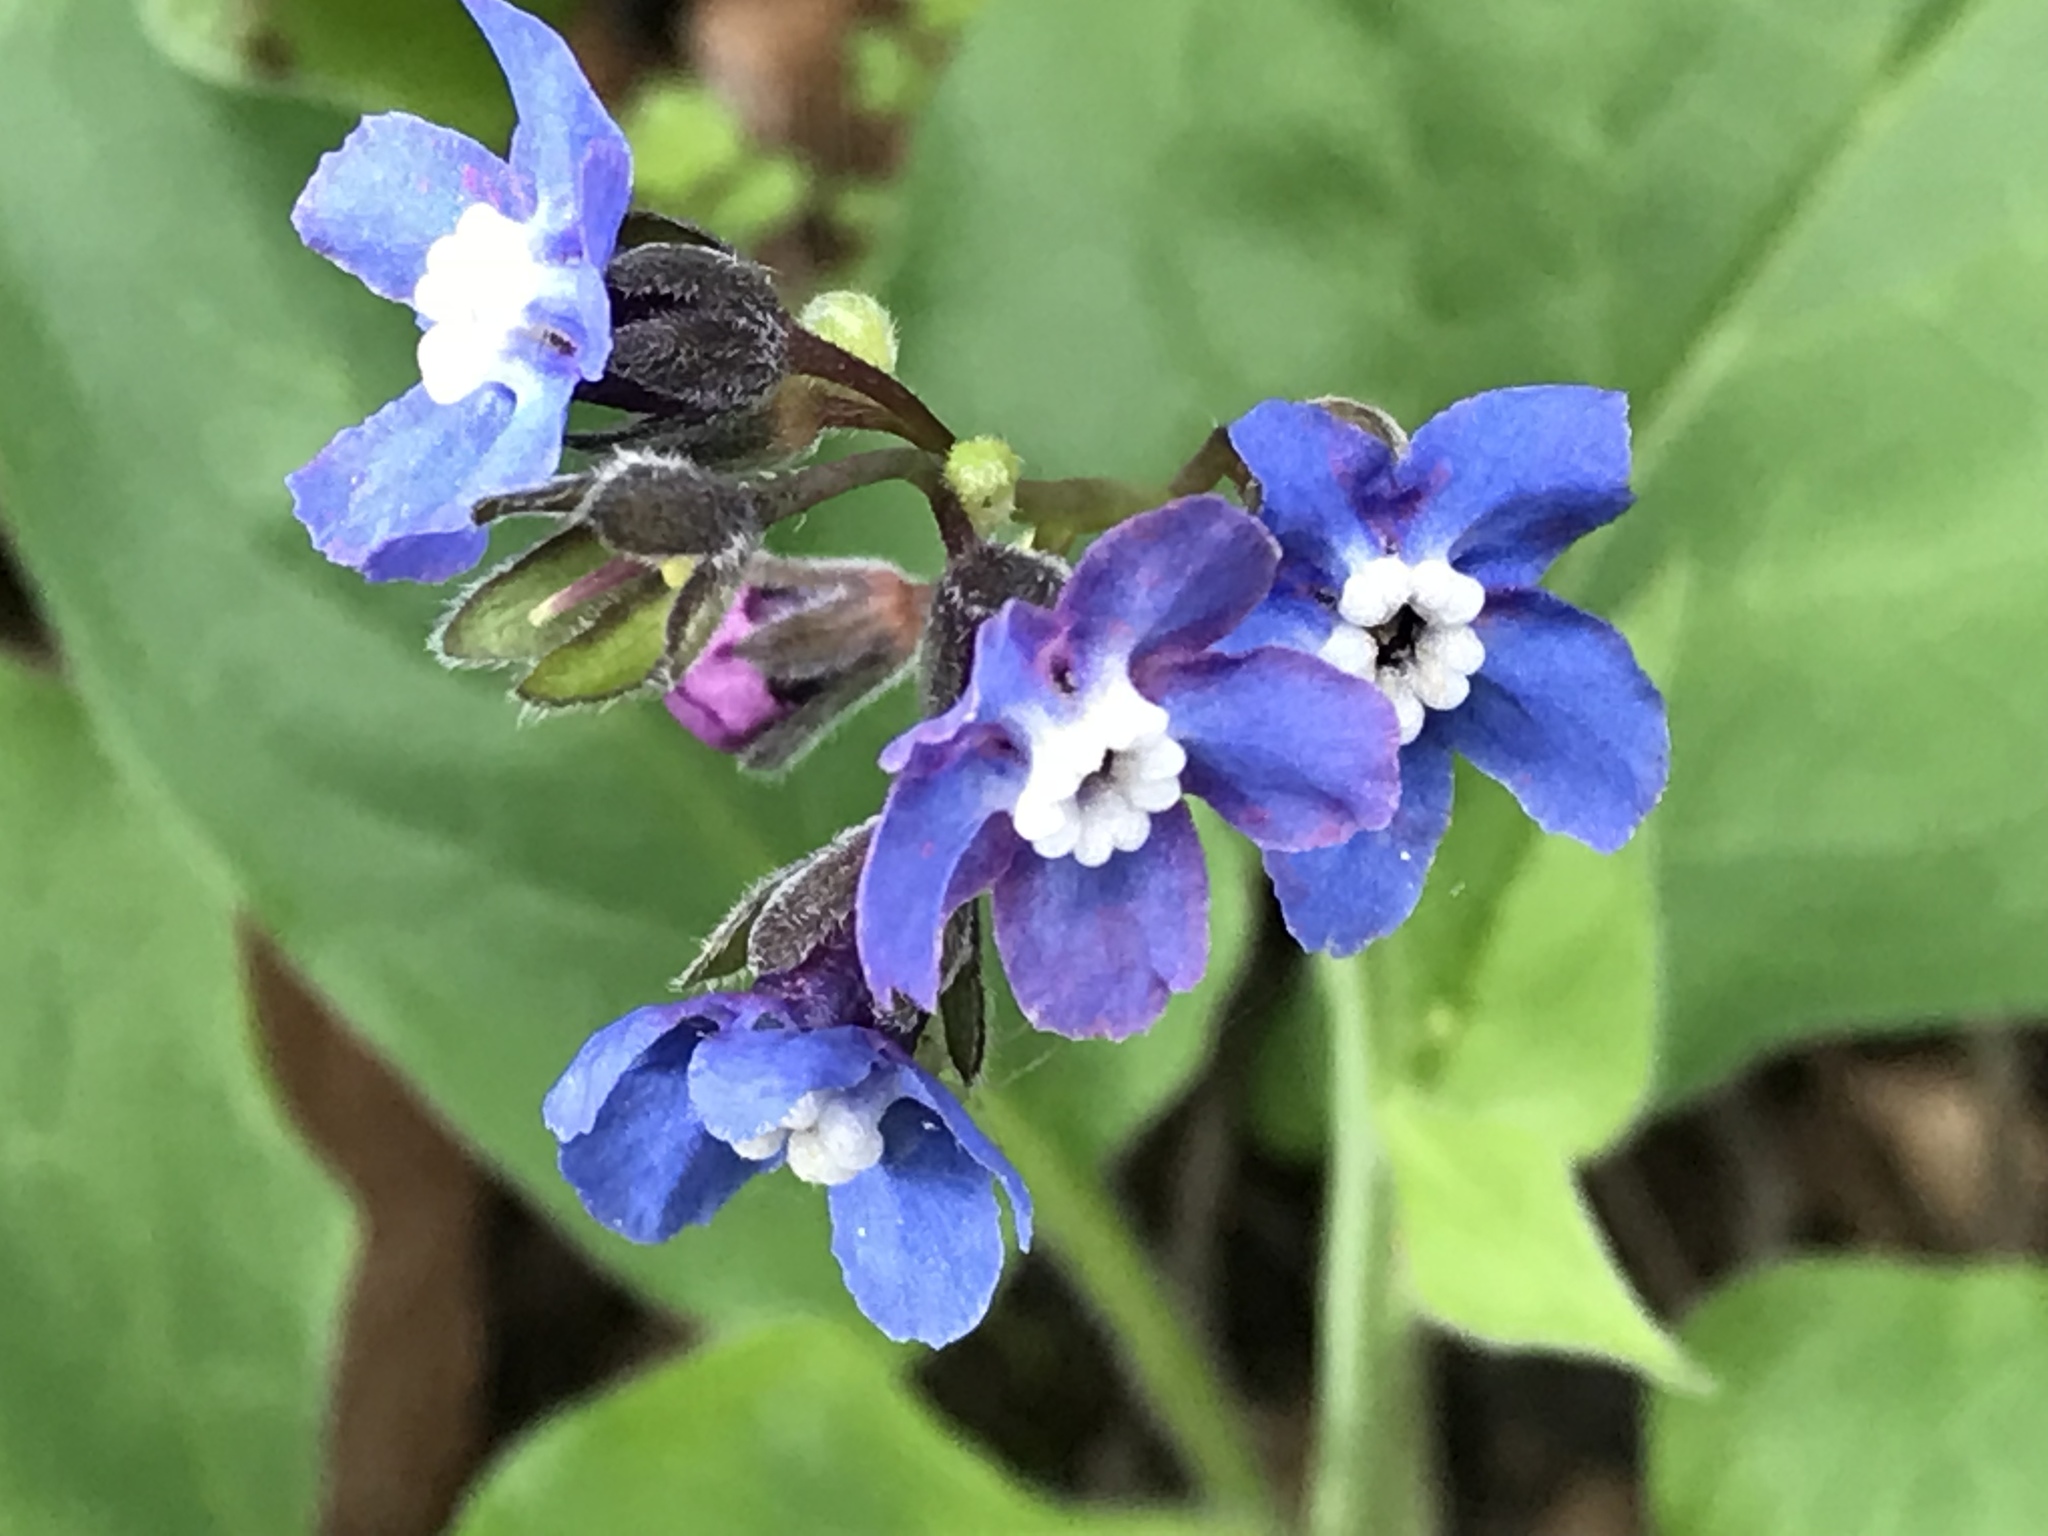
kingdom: Plantae
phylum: Tracheophyta
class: Magnoliopsida
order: Boraginales
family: Boraginaceae
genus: Adelinia
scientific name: Adelinia grande
